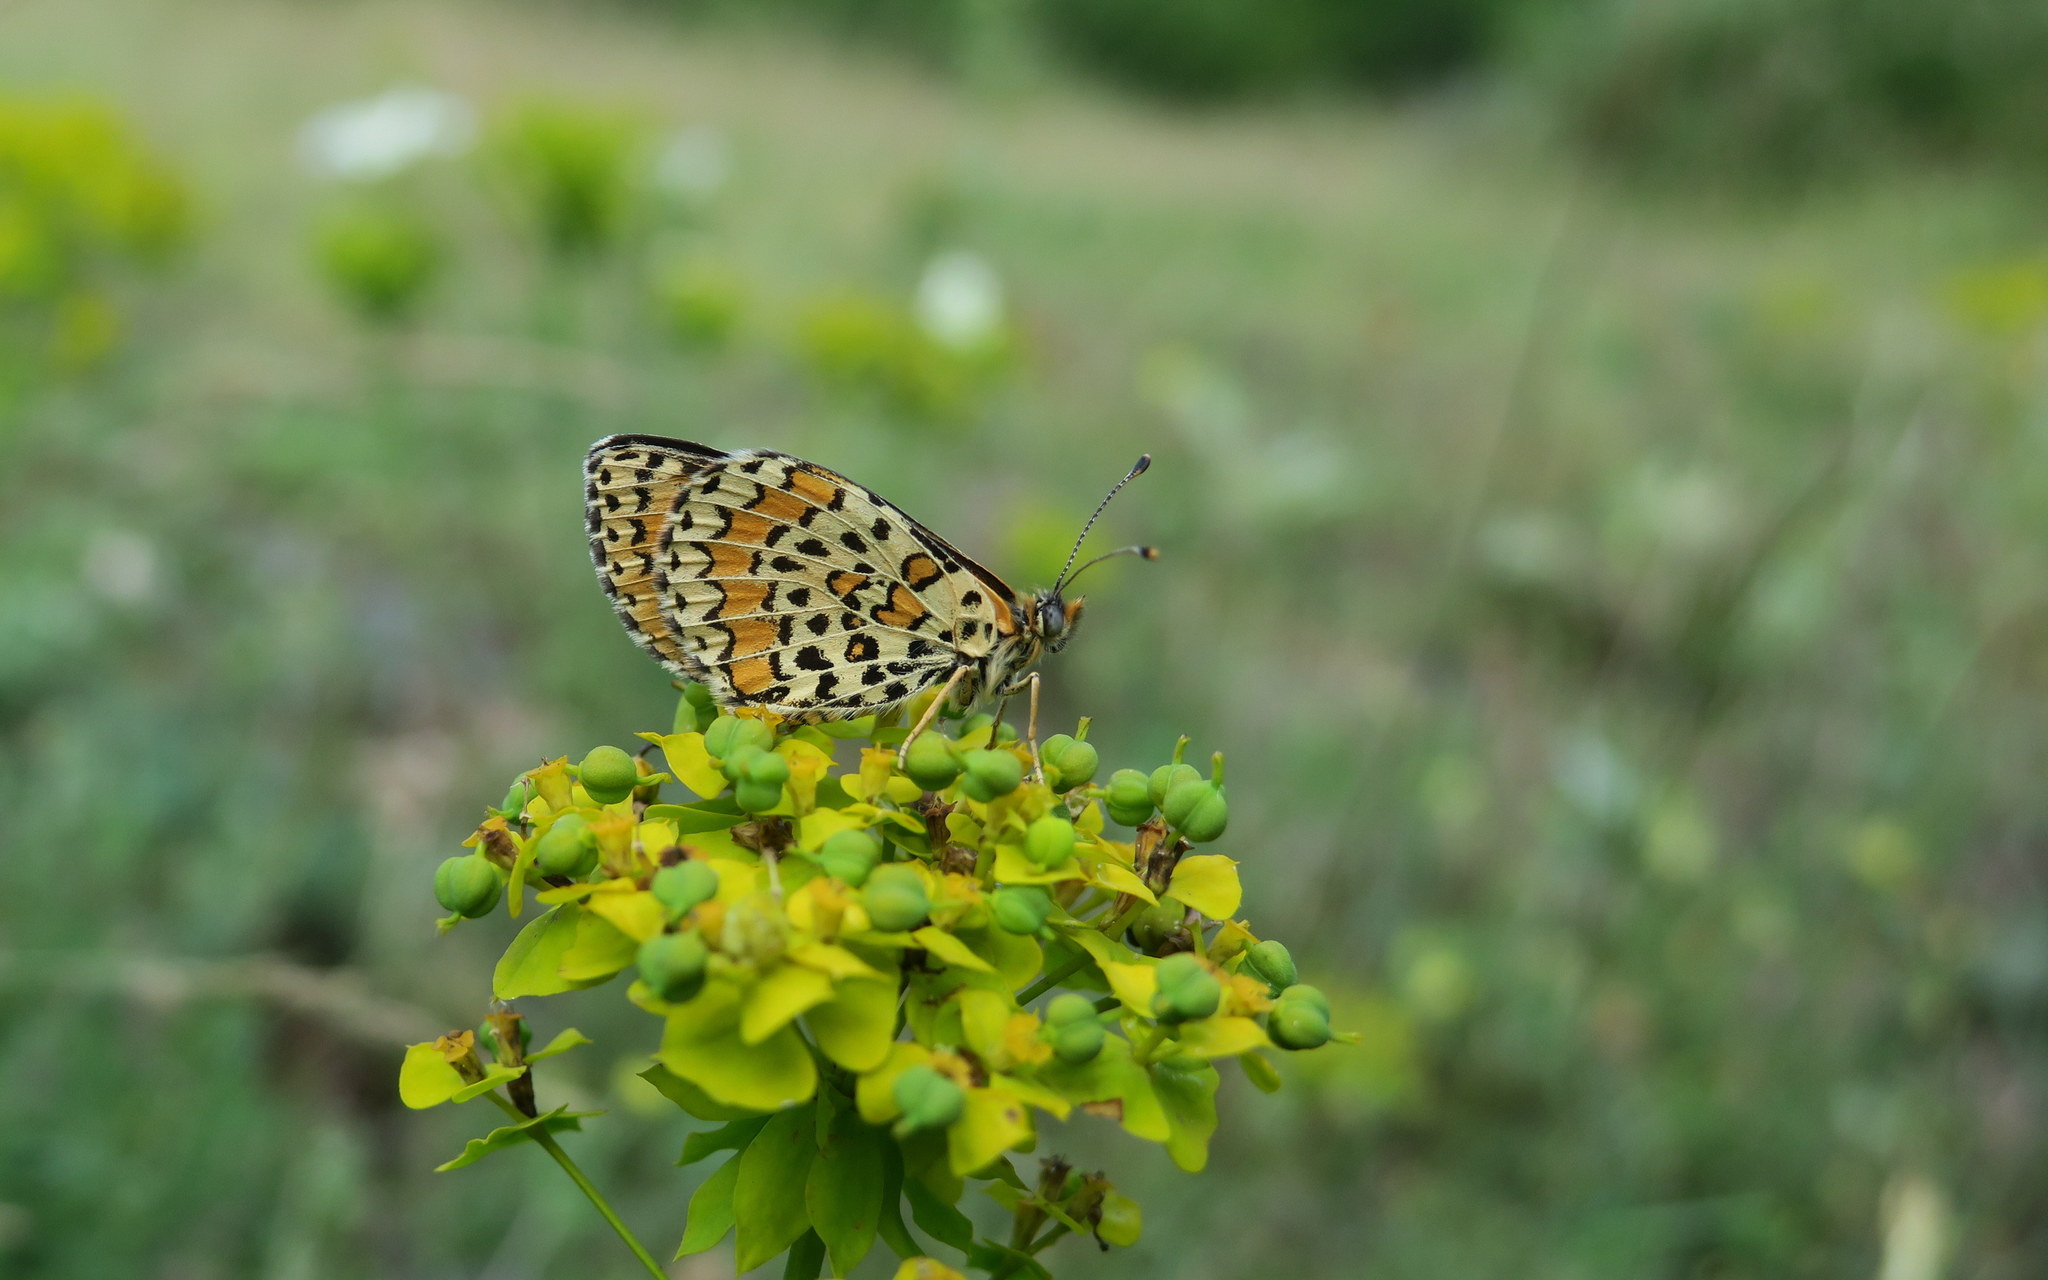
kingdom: Animalia
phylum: Arthropoda
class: Insecta
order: Lepidoptera
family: Nymphalidae
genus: Melitaea
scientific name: Melitaea trivia
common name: Lesser spotted fritillary
